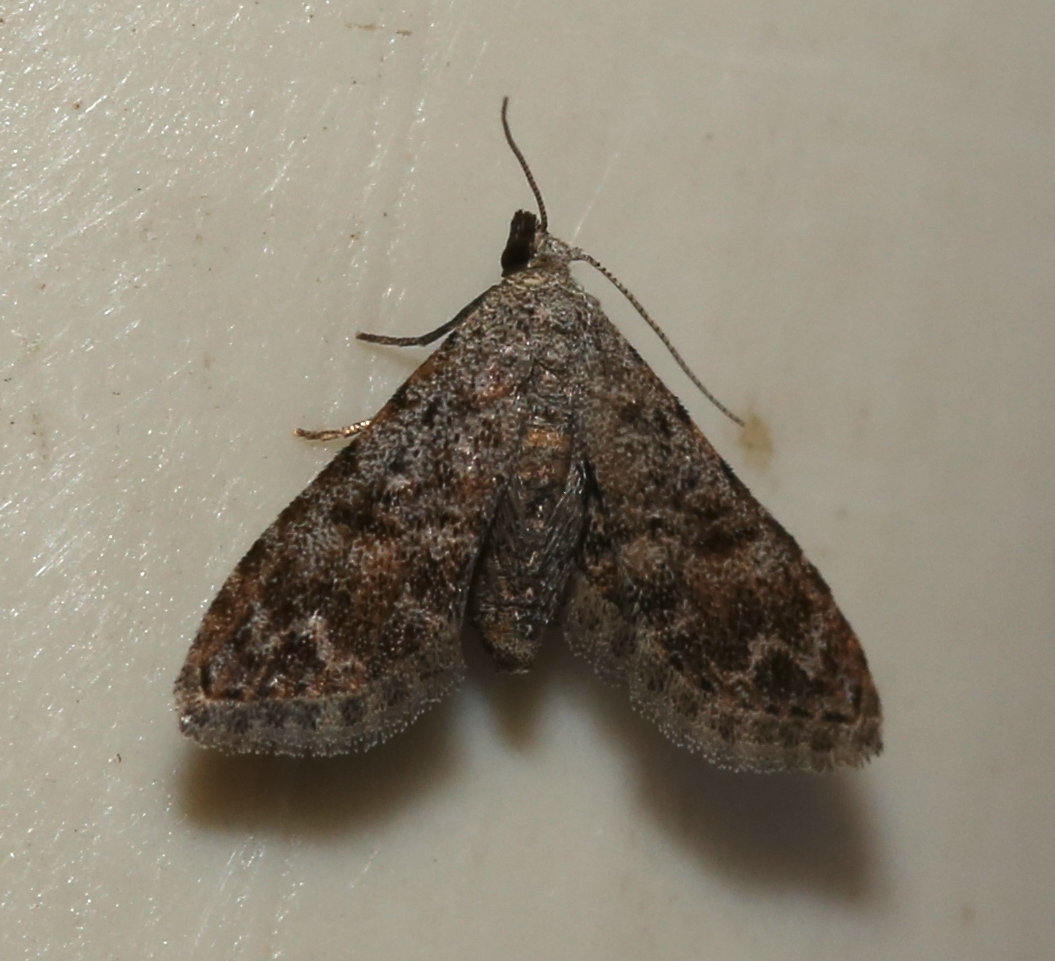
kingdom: Animalia
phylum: Arthropoda
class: Insecta
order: Lepidoptera
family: Erebidae
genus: Sigela
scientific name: Sigela brauneata
